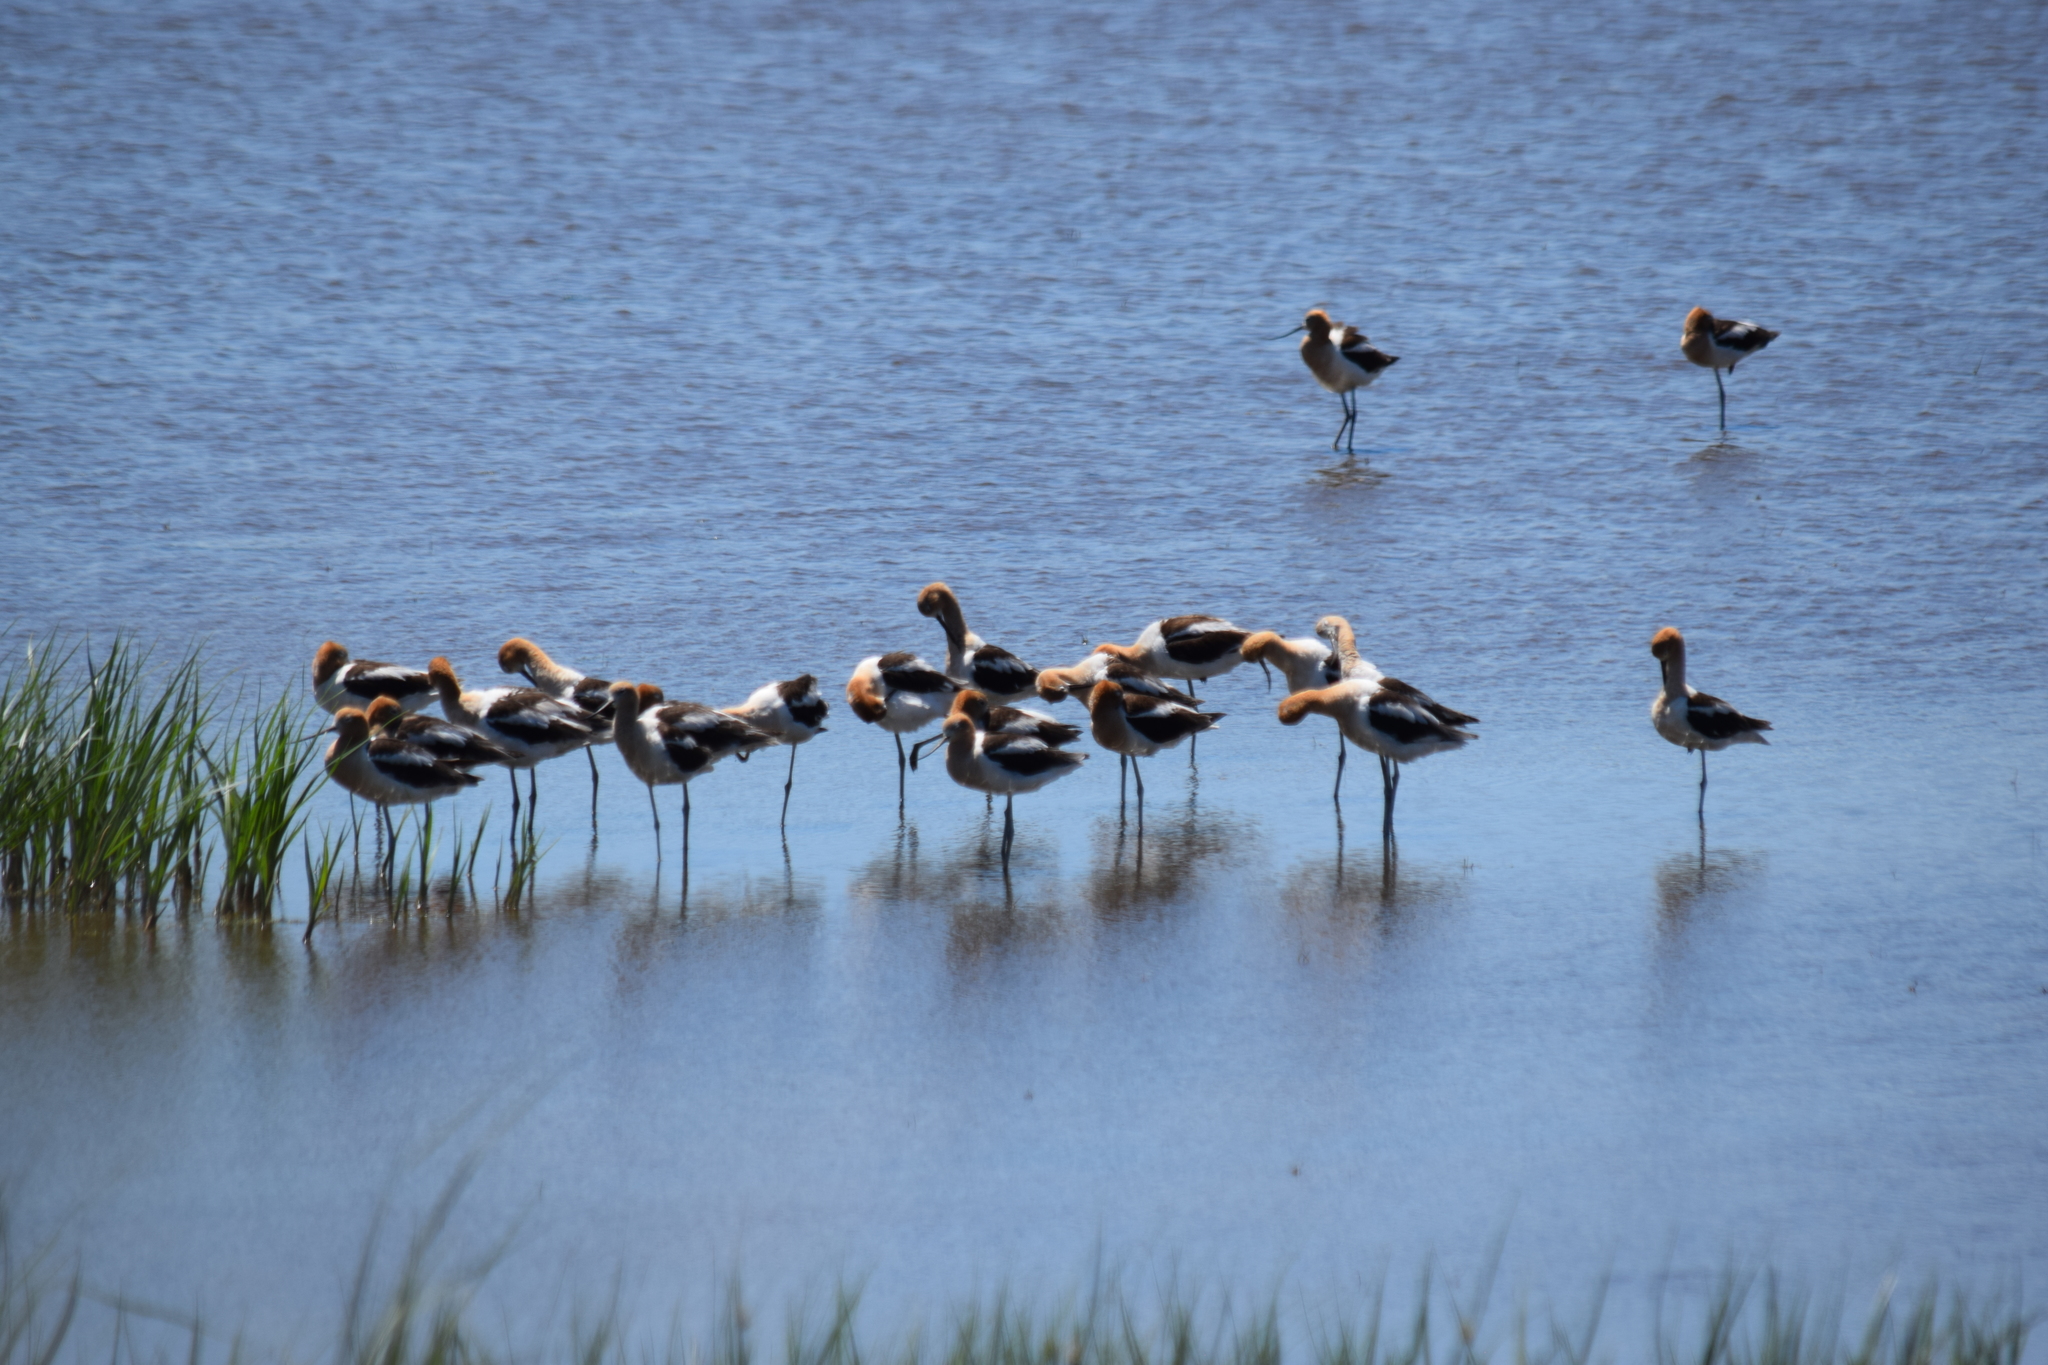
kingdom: Animalia
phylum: Chordata
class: Aves
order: Charadriiformes
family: Recurvirostridae
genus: Recurvirostra
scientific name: Recurvirostra americana
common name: American avocet
